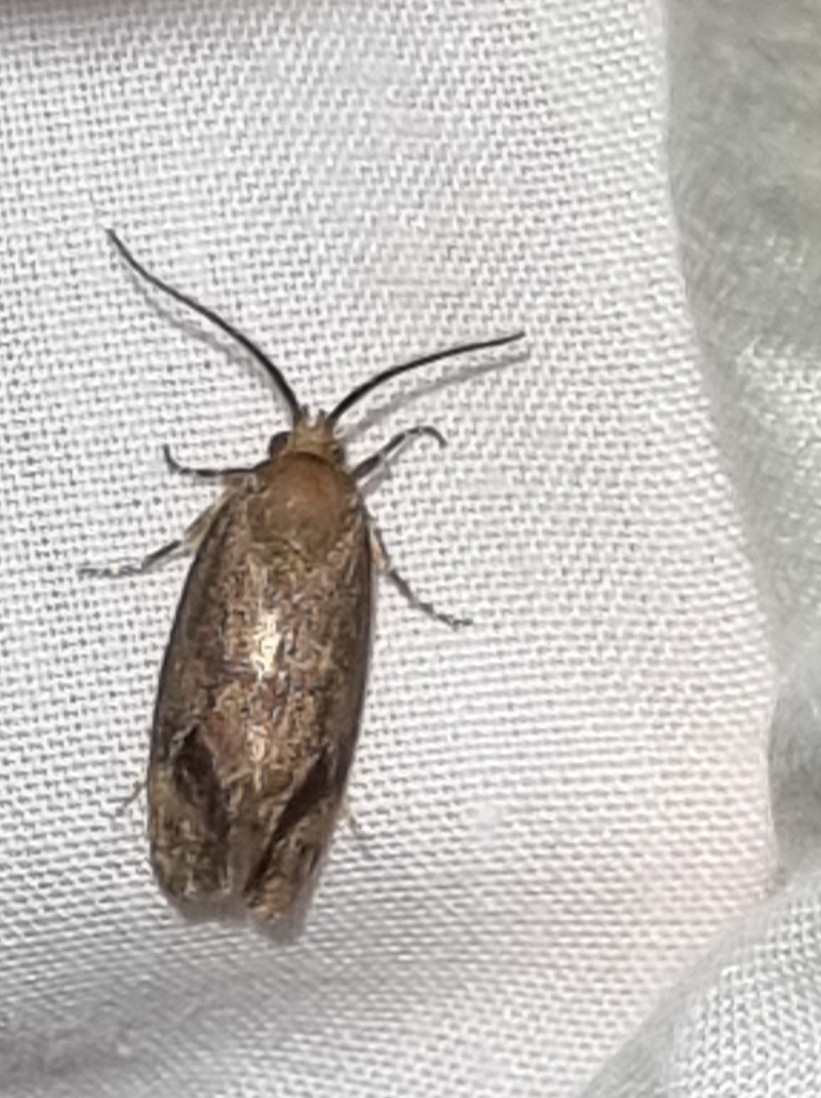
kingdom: Animalia
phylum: Arthropoda
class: Insecta
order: Lepidoptera
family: Oecophoridae
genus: Pycnocera
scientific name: Pycnocera hypoxantha
